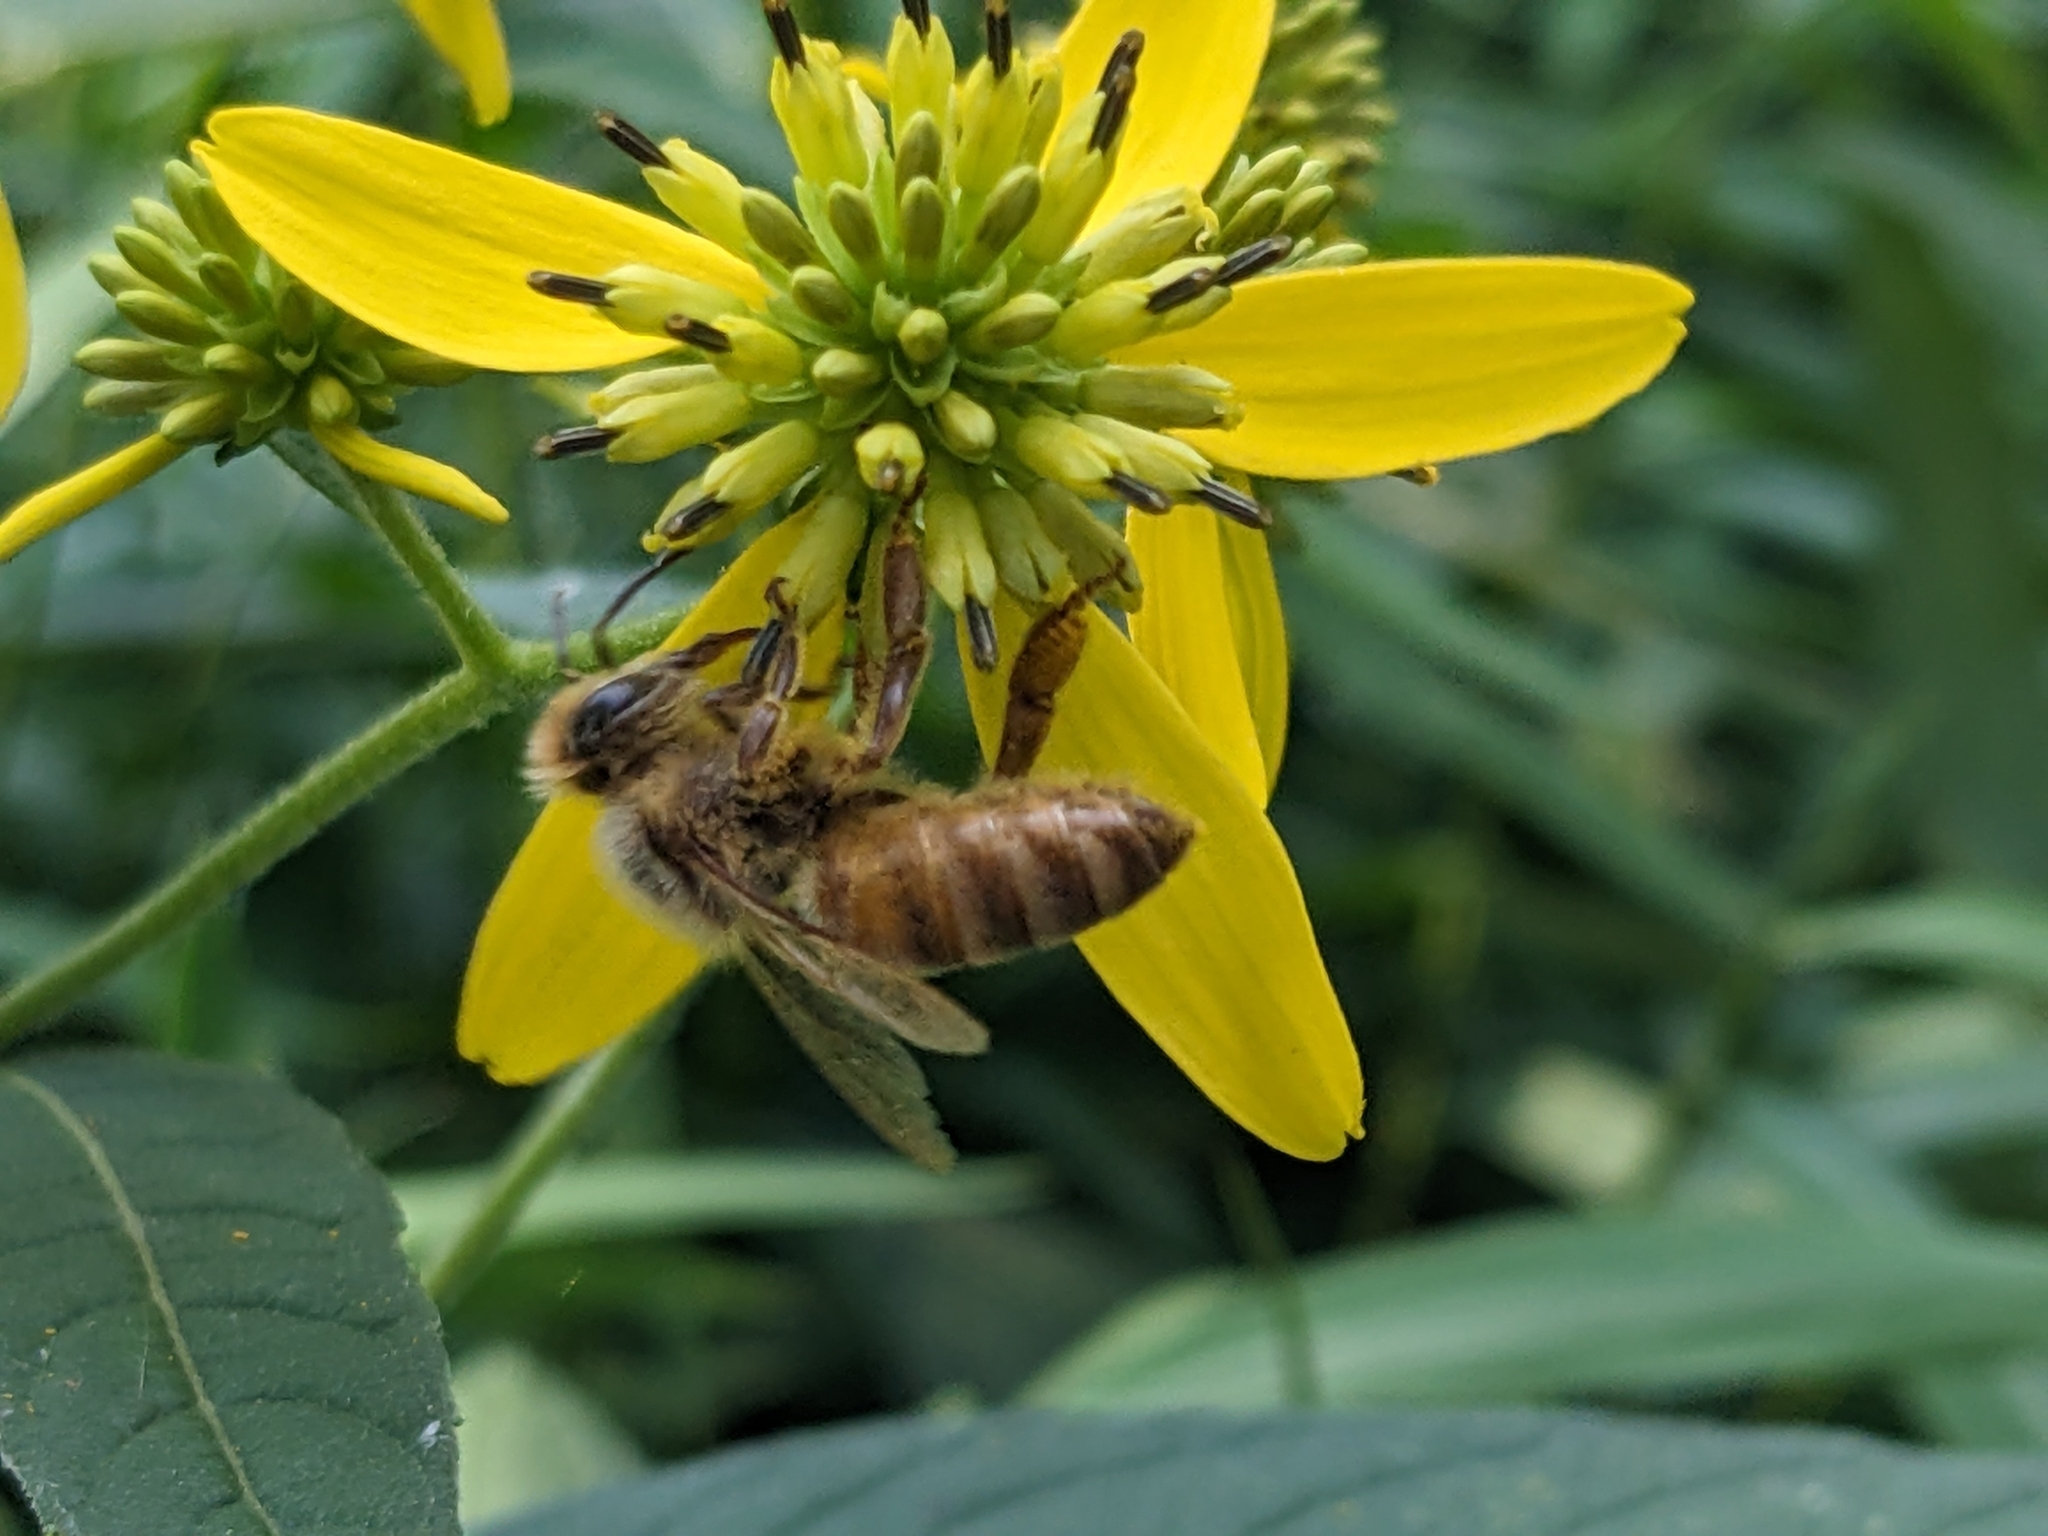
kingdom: Animalia
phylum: Arthropoda
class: Insecta
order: Hymenoptera
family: Apidae
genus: Apis
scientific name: Apis mellifera
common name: Honey bee
